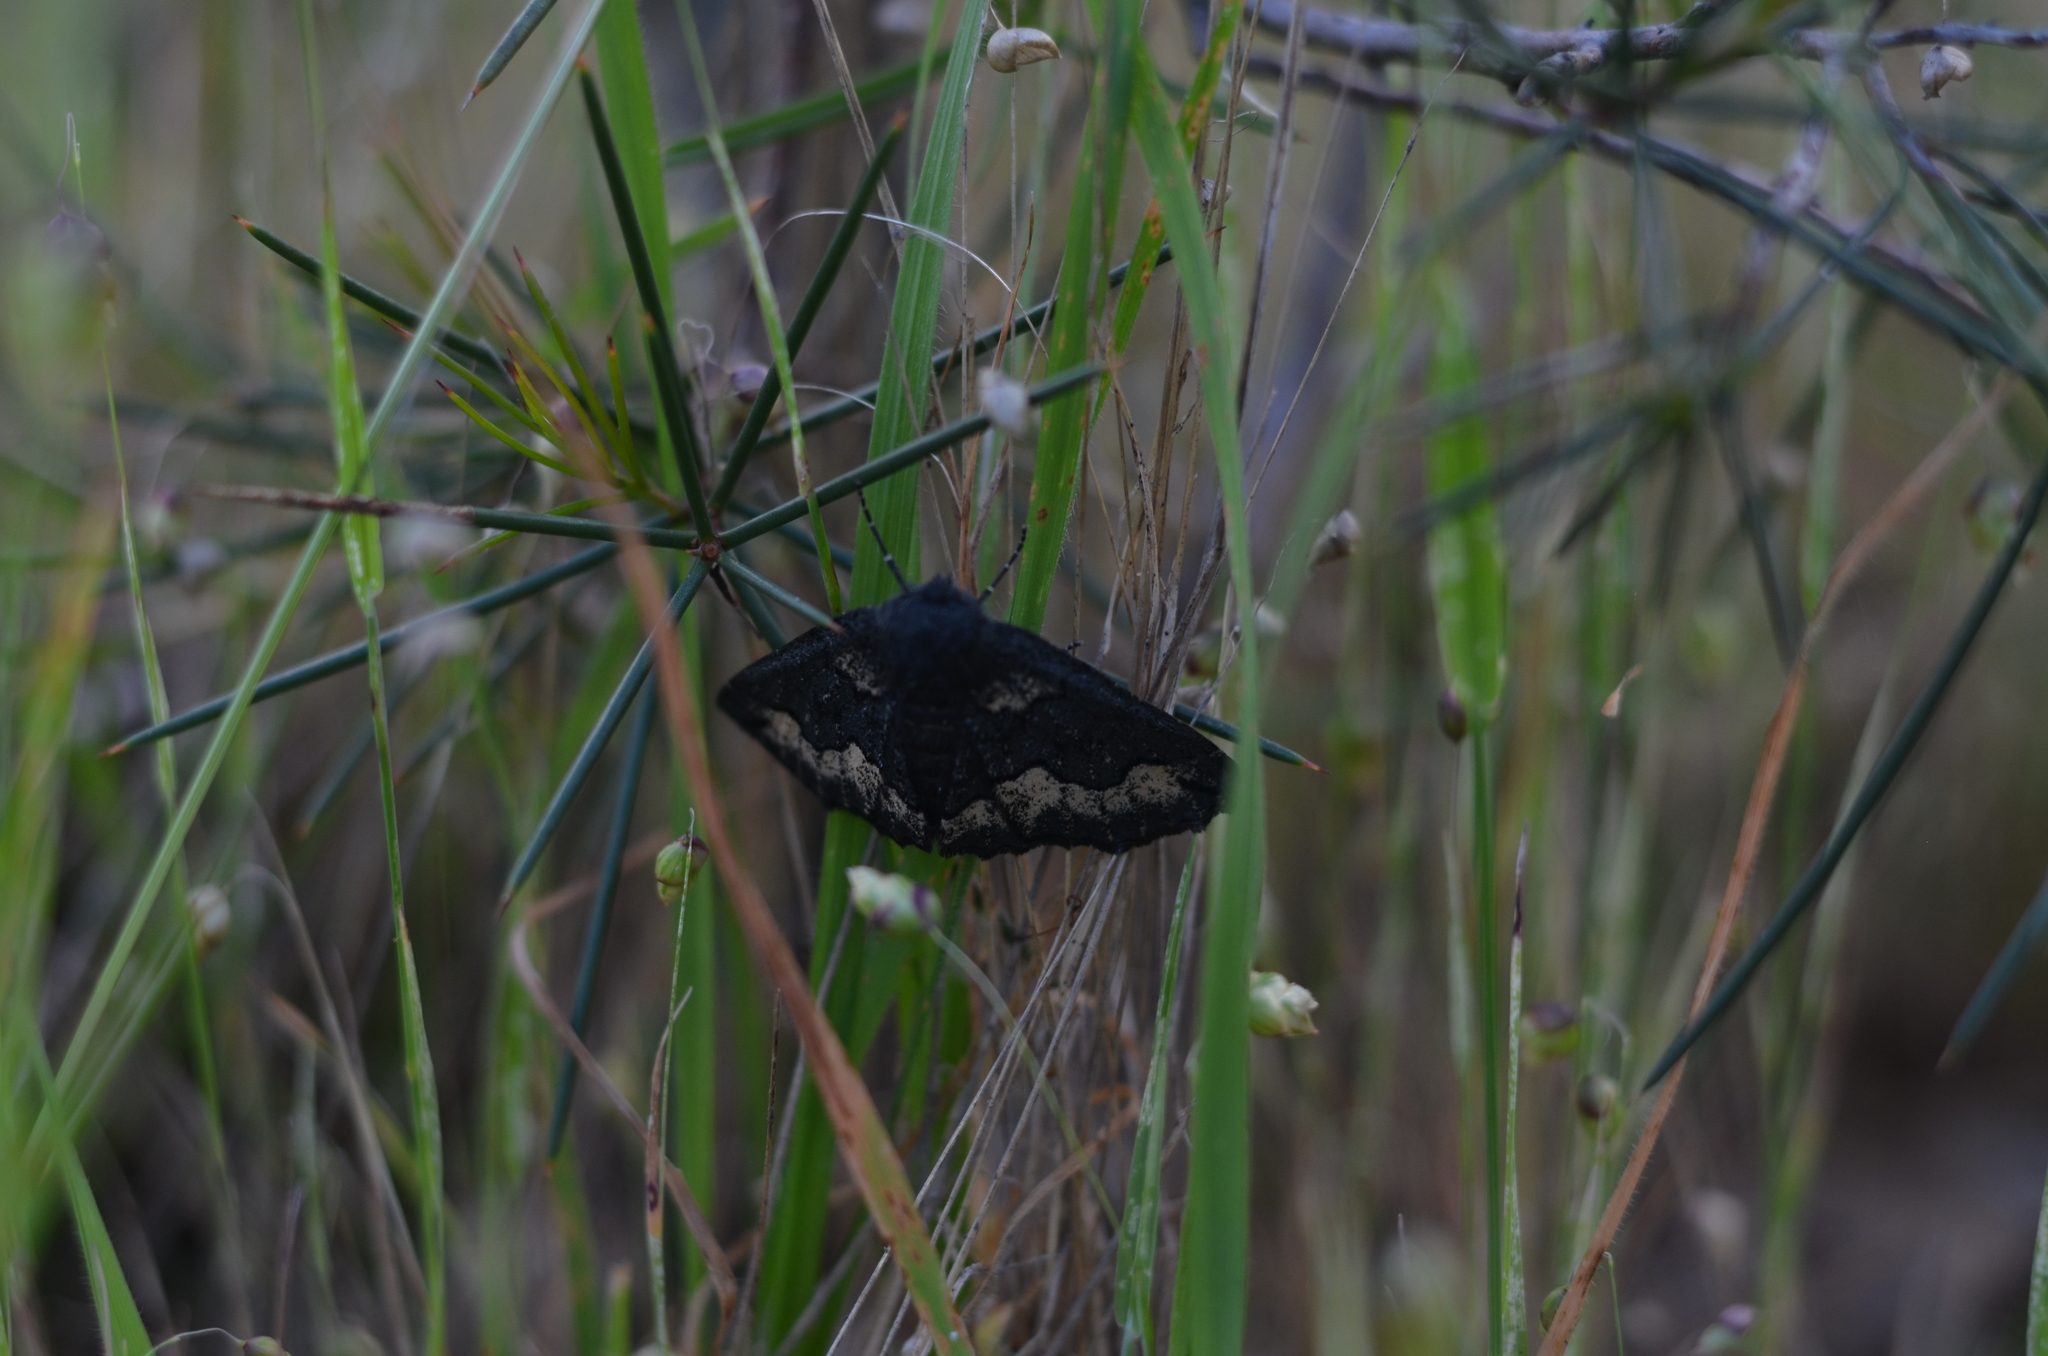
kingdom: Animalia
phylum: Arthropoda
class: Insecta
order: Lepidoptera
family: Geometridae
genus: Melanodes
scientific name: Melanodes anthracitaria
